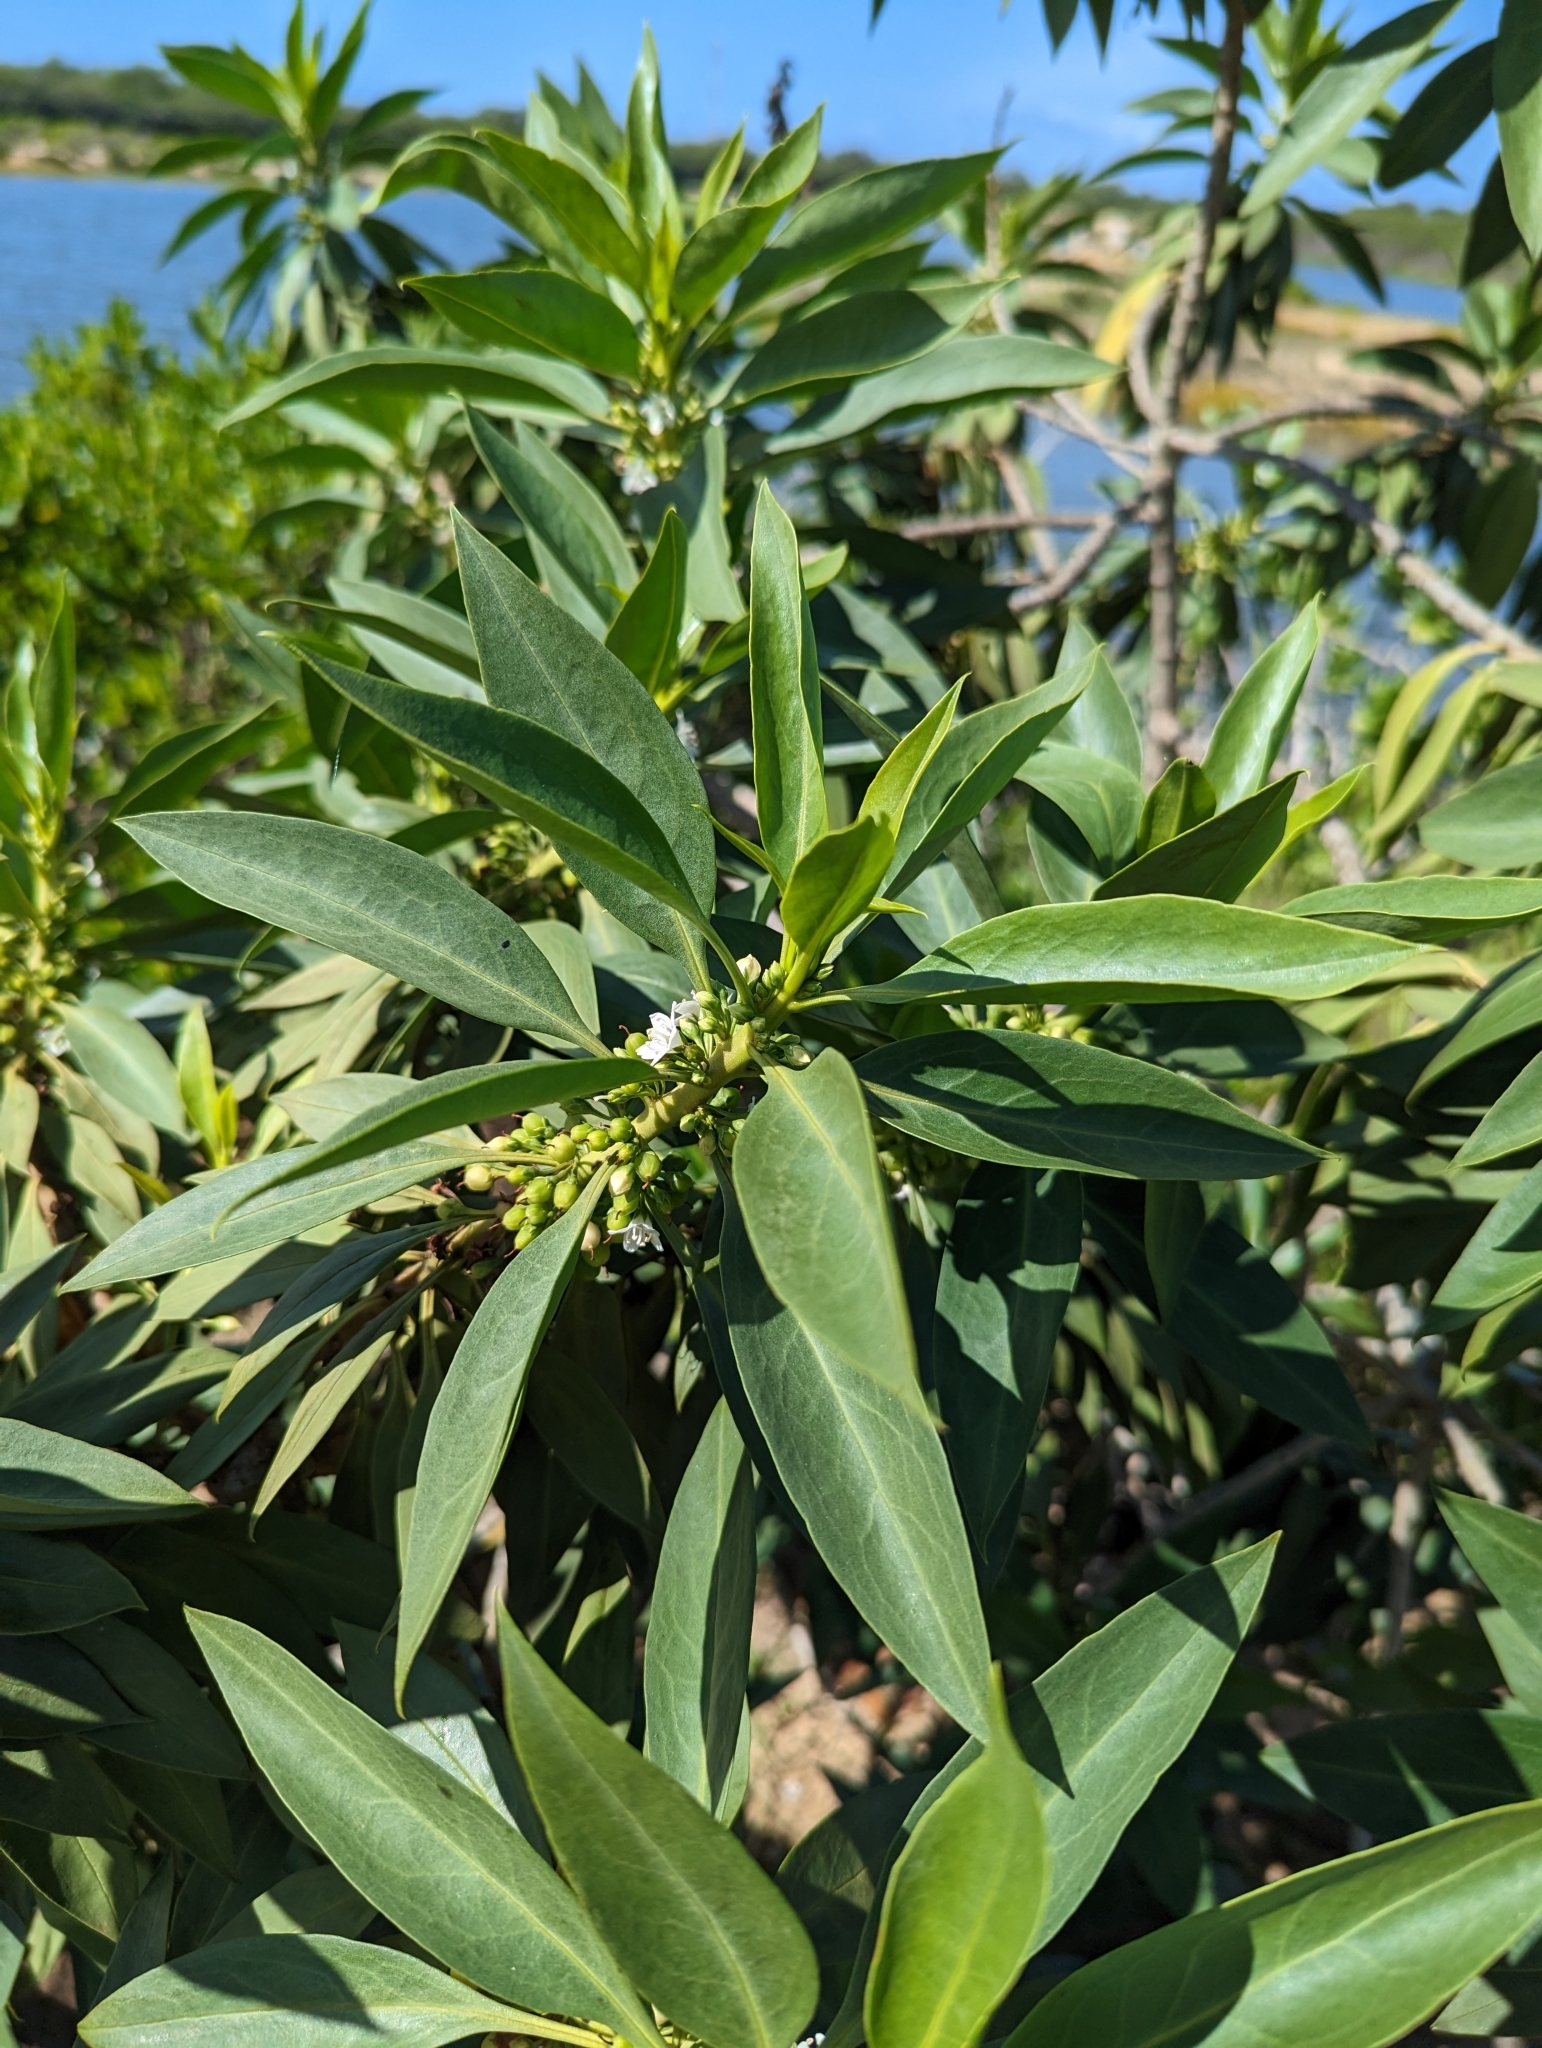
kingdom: Plantae
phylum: Tracheophyta
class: Magnoliopsida
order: Lamiales
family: Scrophulariaceae
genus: Myoporum
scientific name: Myoporum sandwicense
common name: Bastard-sandalwood
